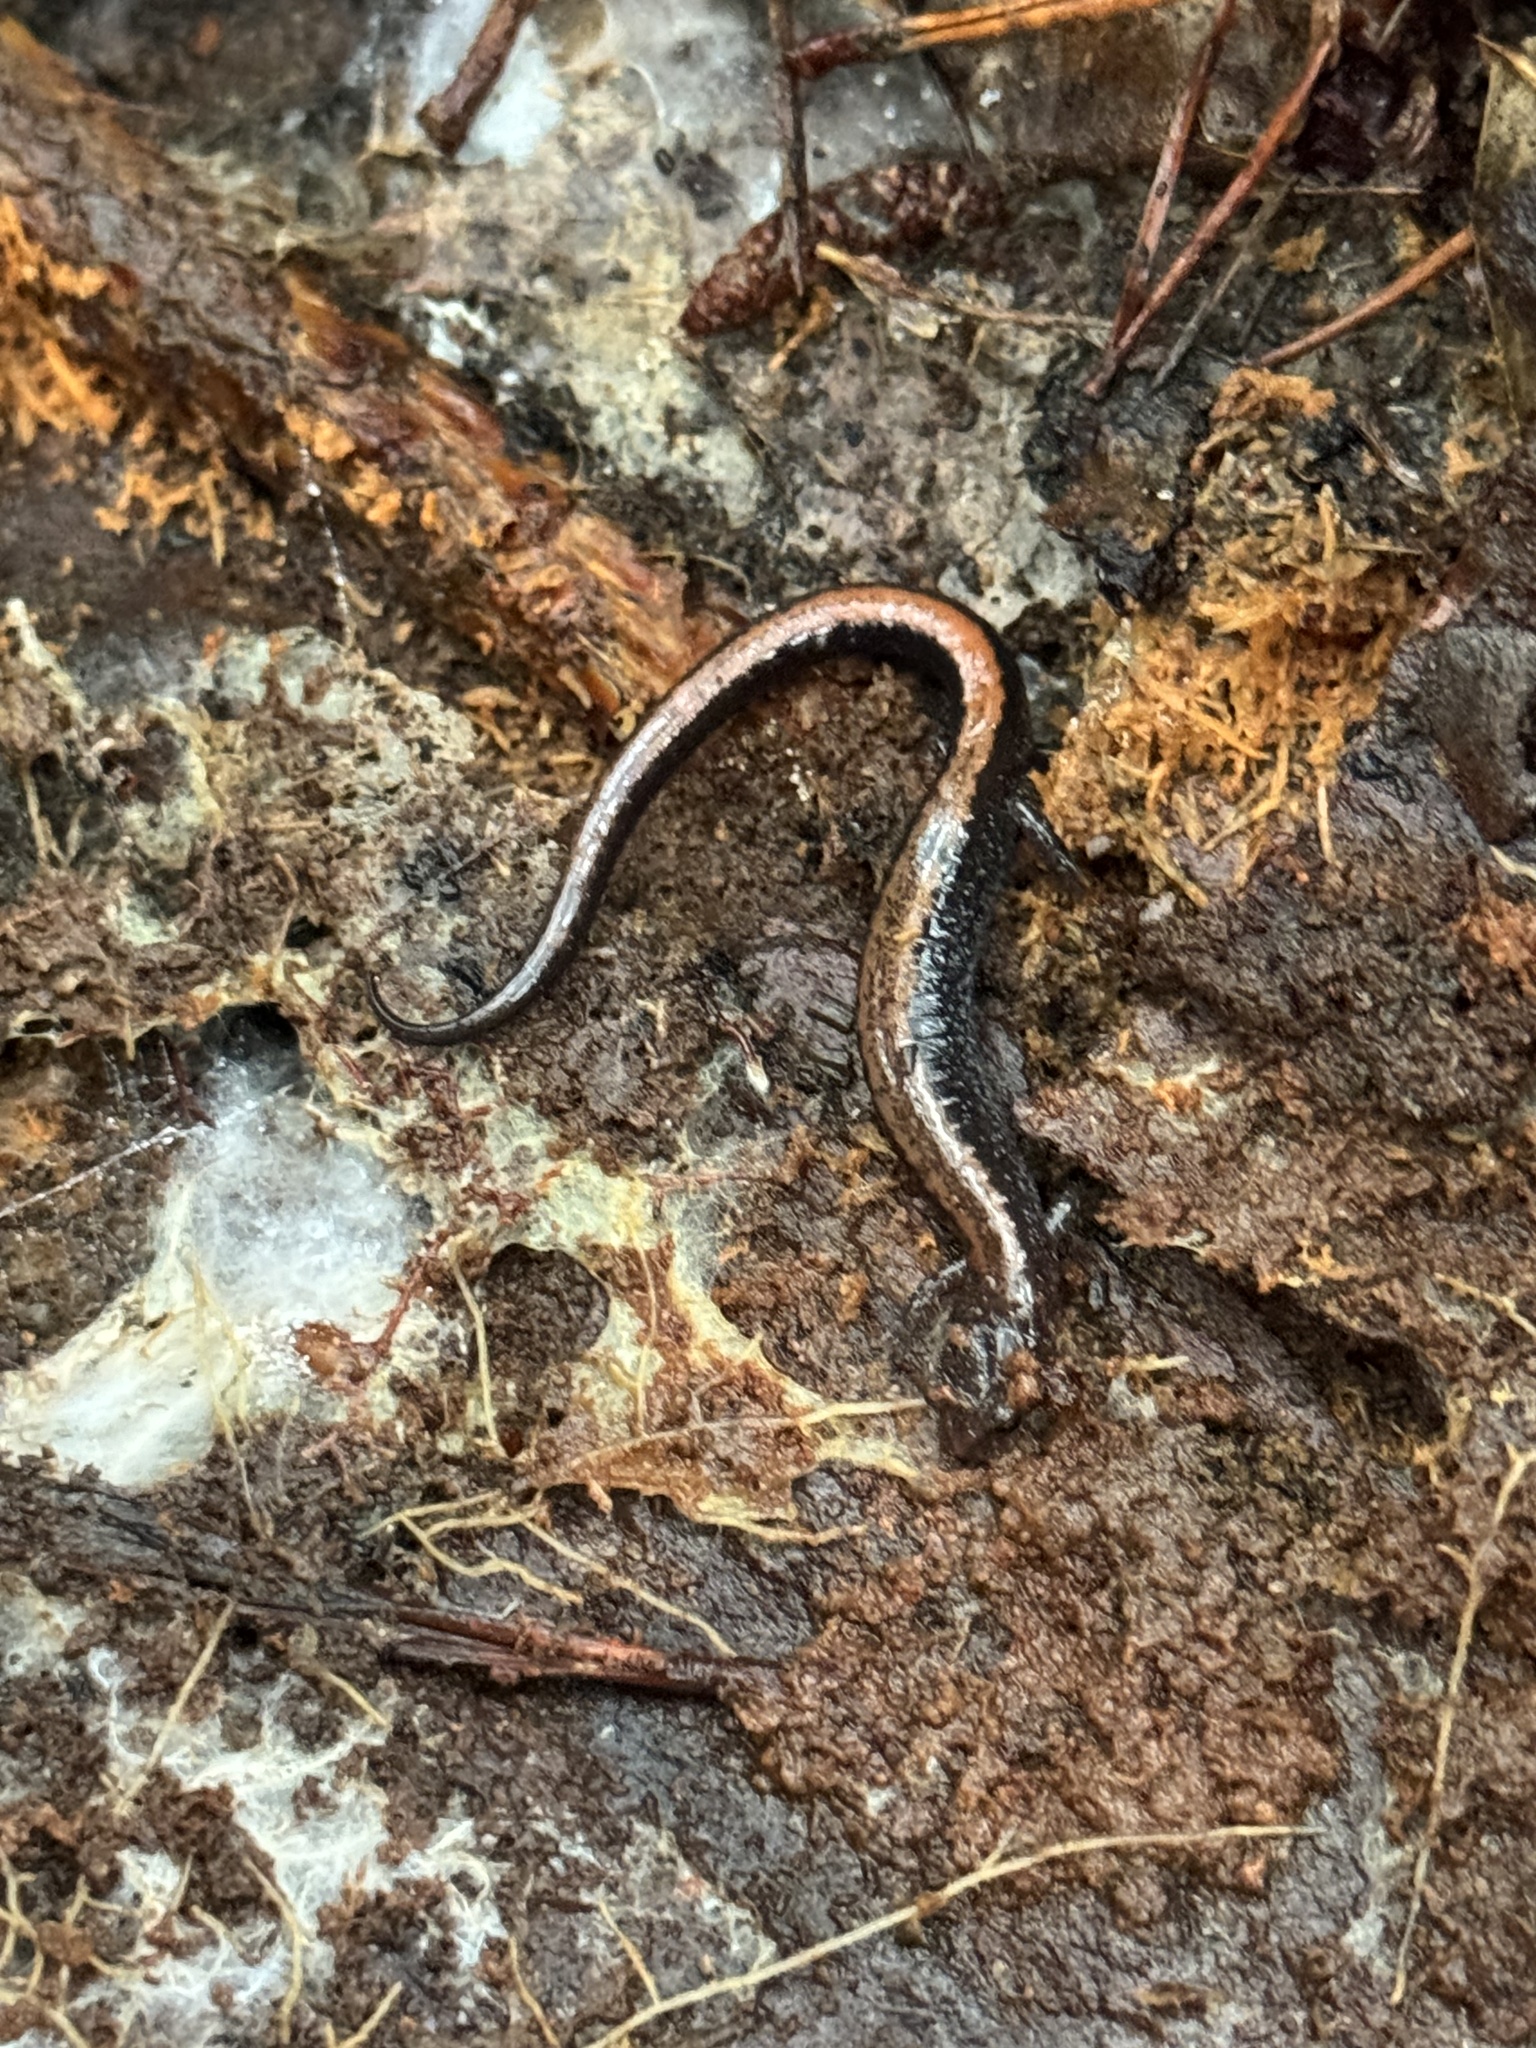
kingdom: Animalia
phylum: Chordata
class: Amphibia
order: Caudata
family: Plethodontidae
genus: Plethodon
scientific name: Plethodon cinereus
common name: Redback salamander
